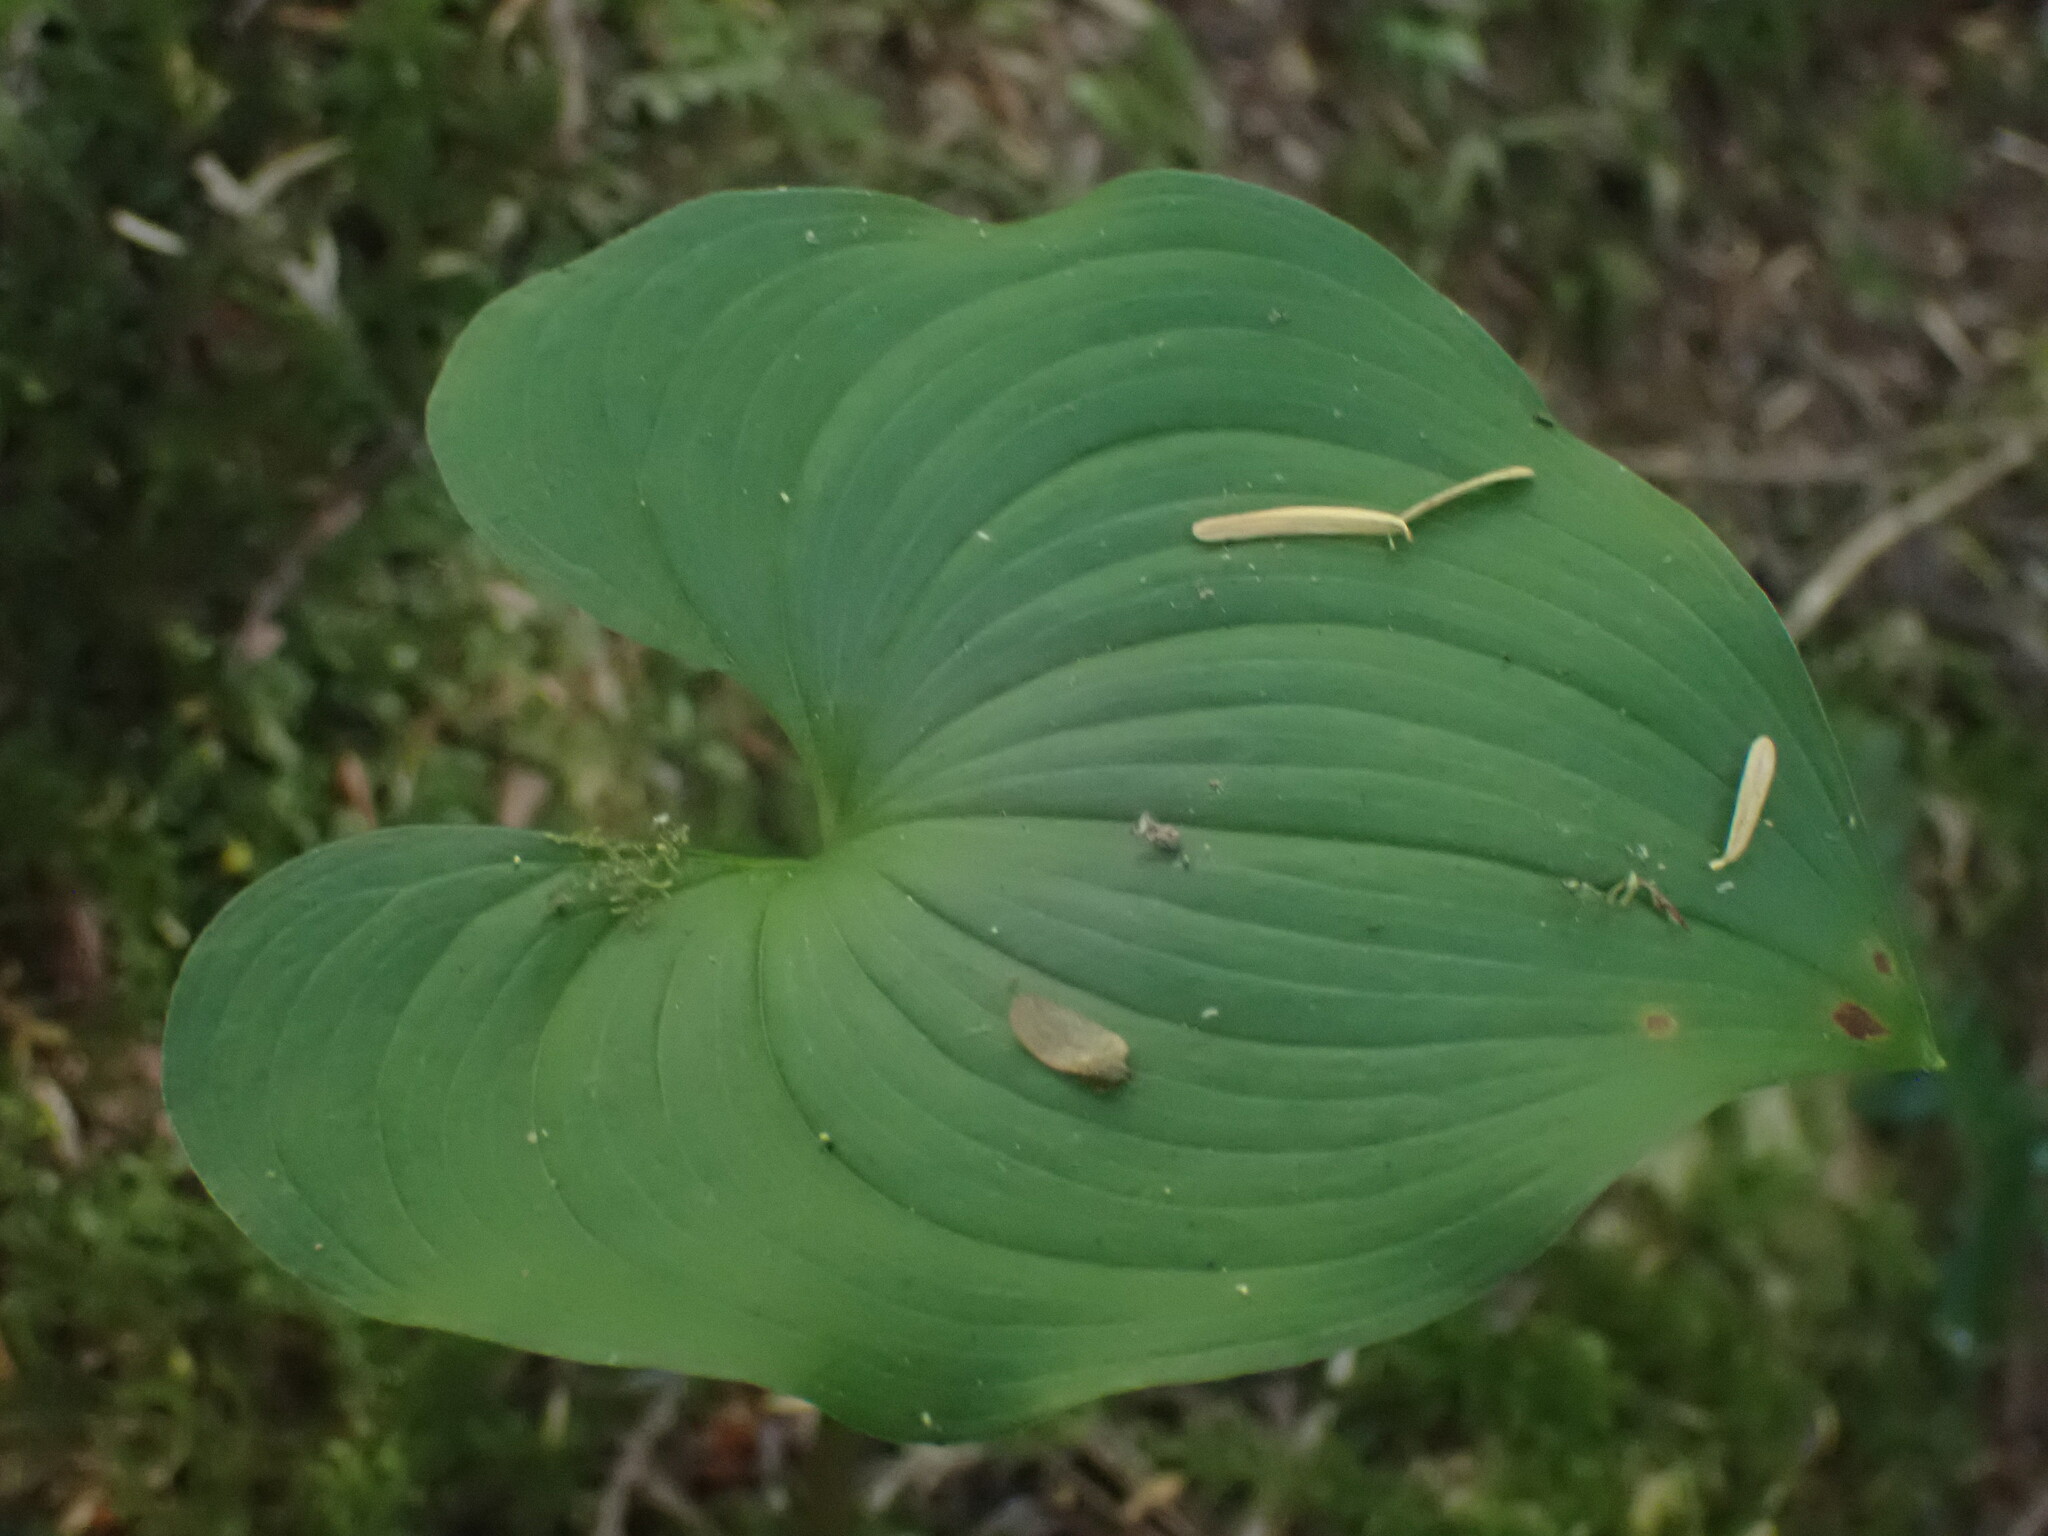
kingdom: Plantae
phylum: Tracheophyta
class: Liliopsida
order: Asparagales
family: Asparagaceae
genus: Maianthemum
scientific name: Maianthemum dilatatum
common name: False lily-of-the-valley
